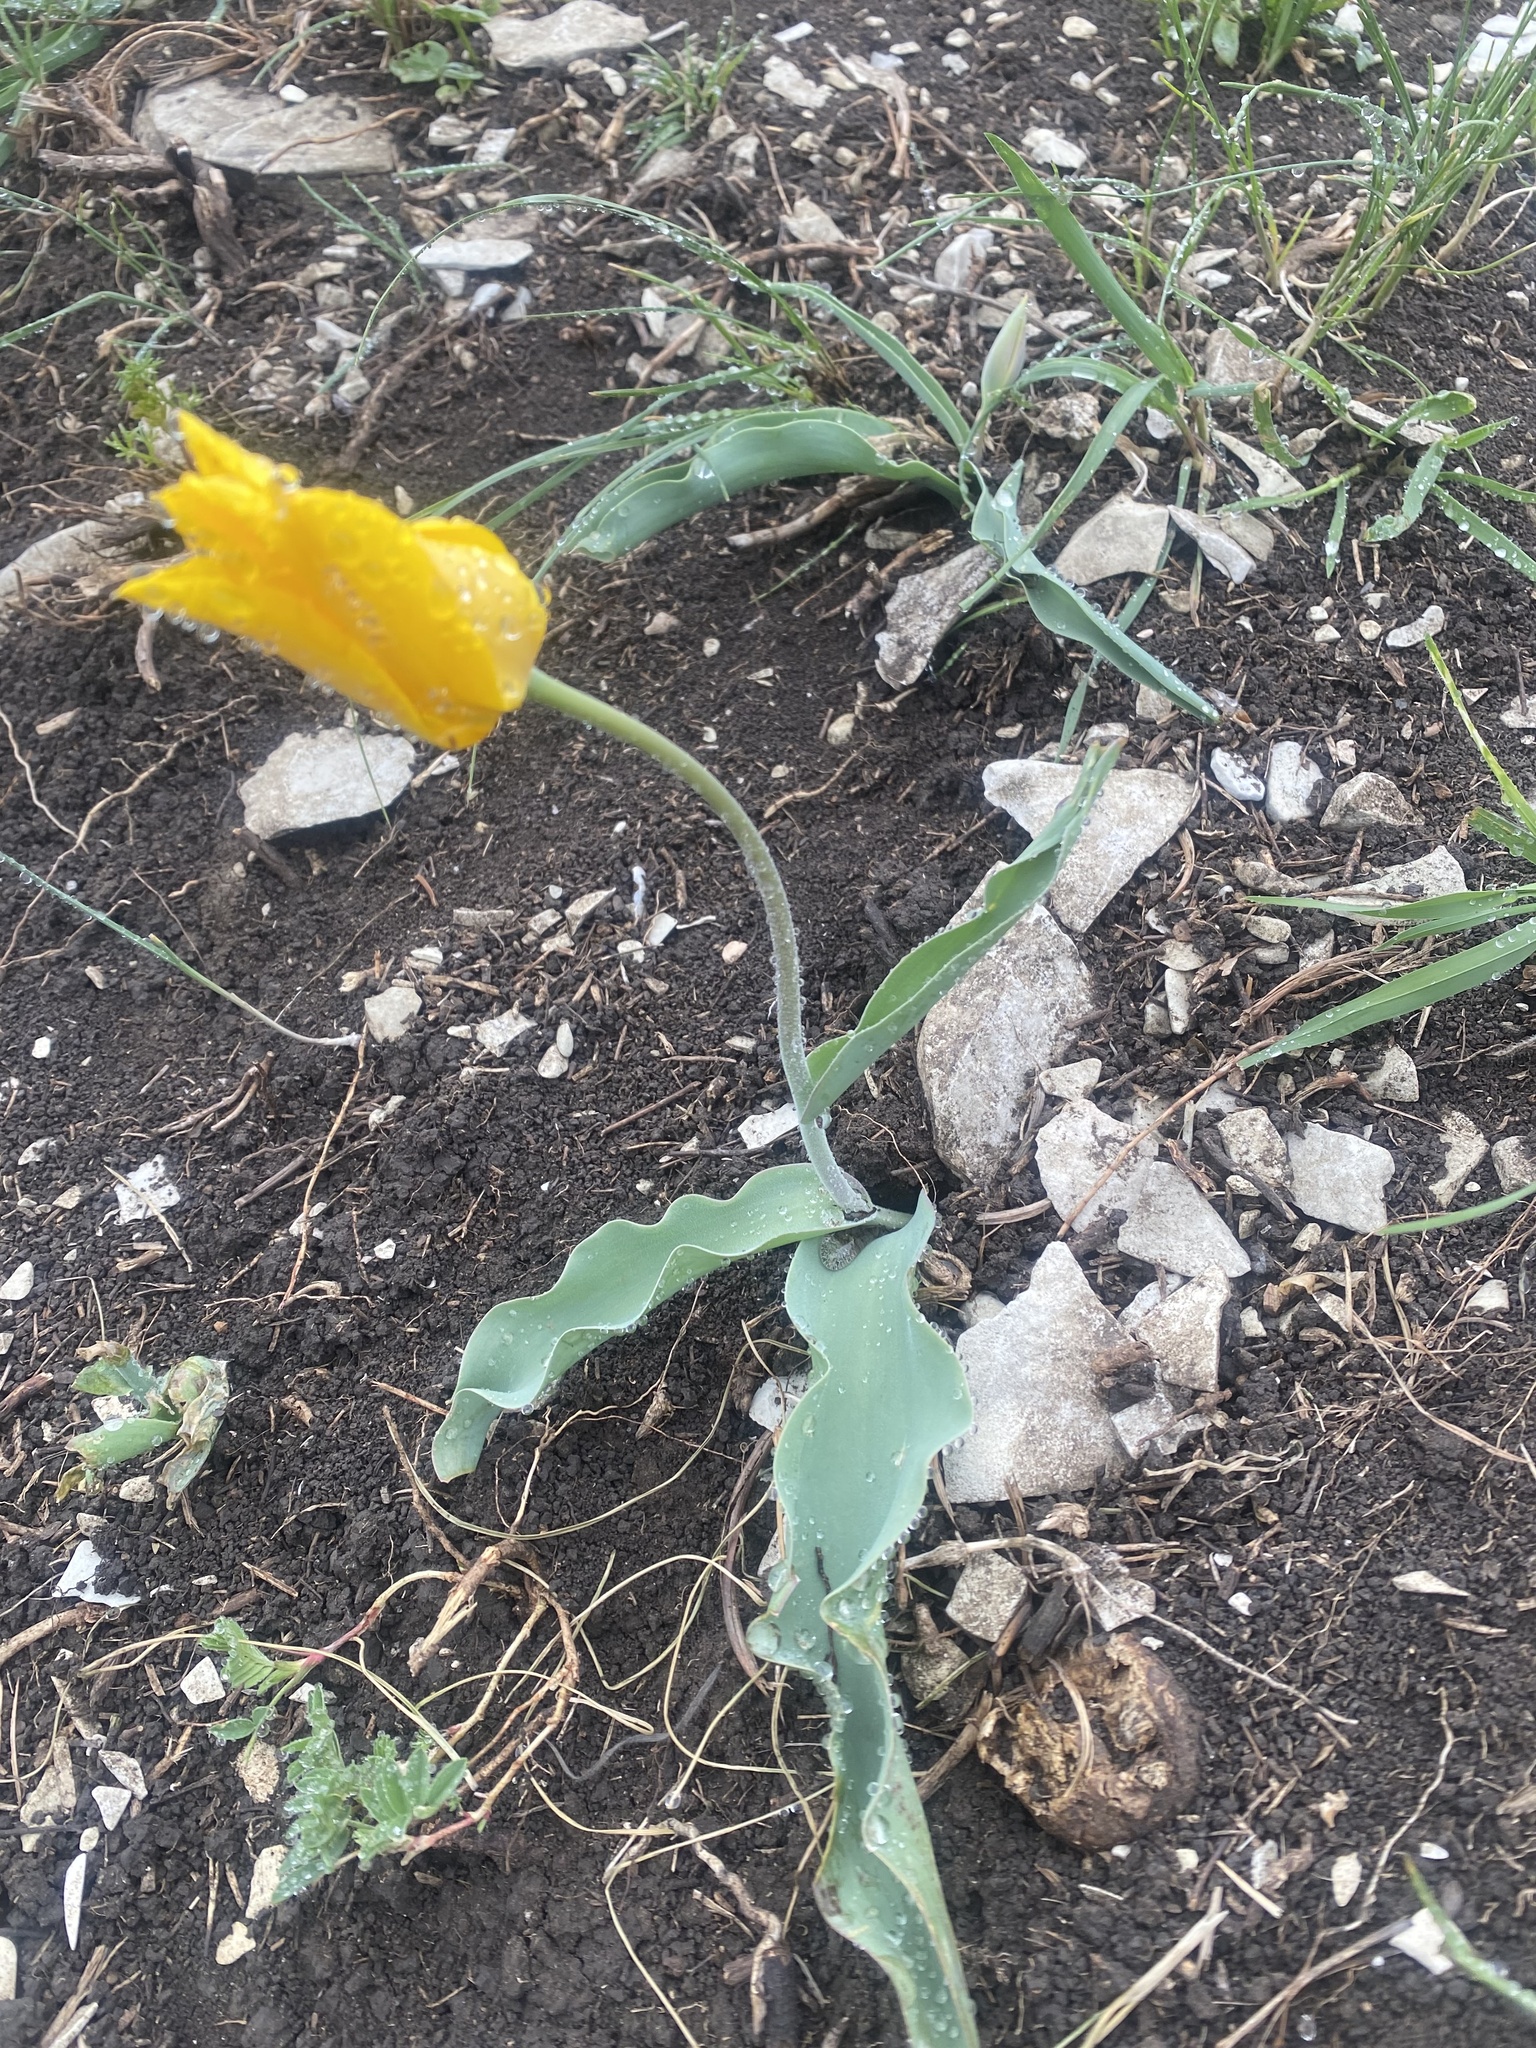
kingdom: Plantae
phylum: Tracheophyta
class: Liliopsida
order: Liliales
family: Liliaceae
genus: Tulipa
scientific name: Tulipa suaveolens
